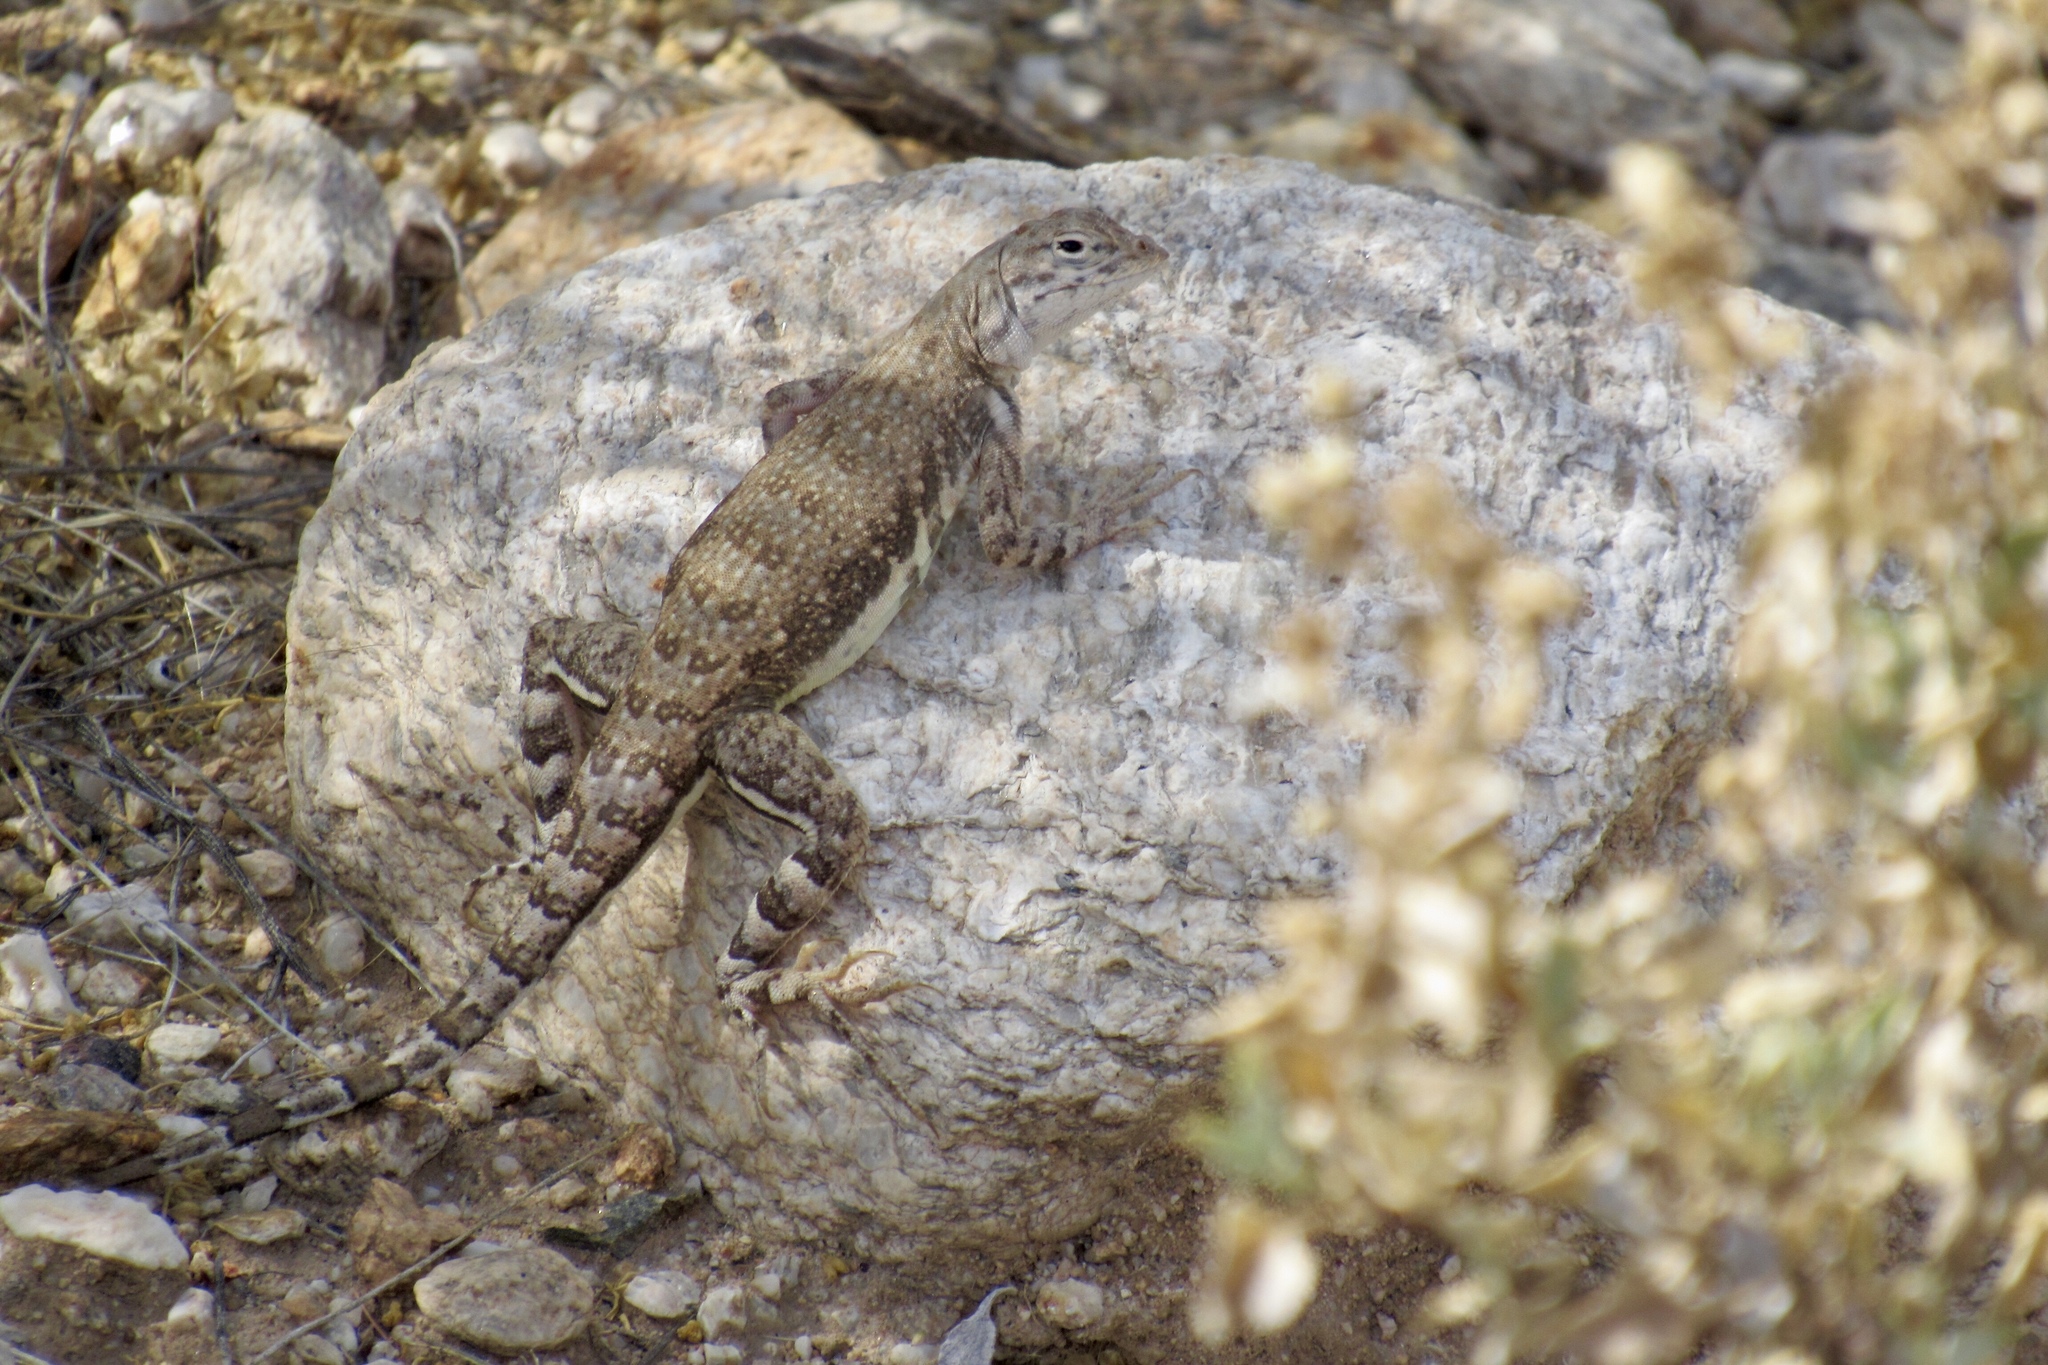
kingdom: Animalia
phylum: Chordata
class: Squamata
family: Phrynosomatidae
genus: Callisaurus
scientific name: Callisaurus draconoides
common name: Zebra-tailed lizard
